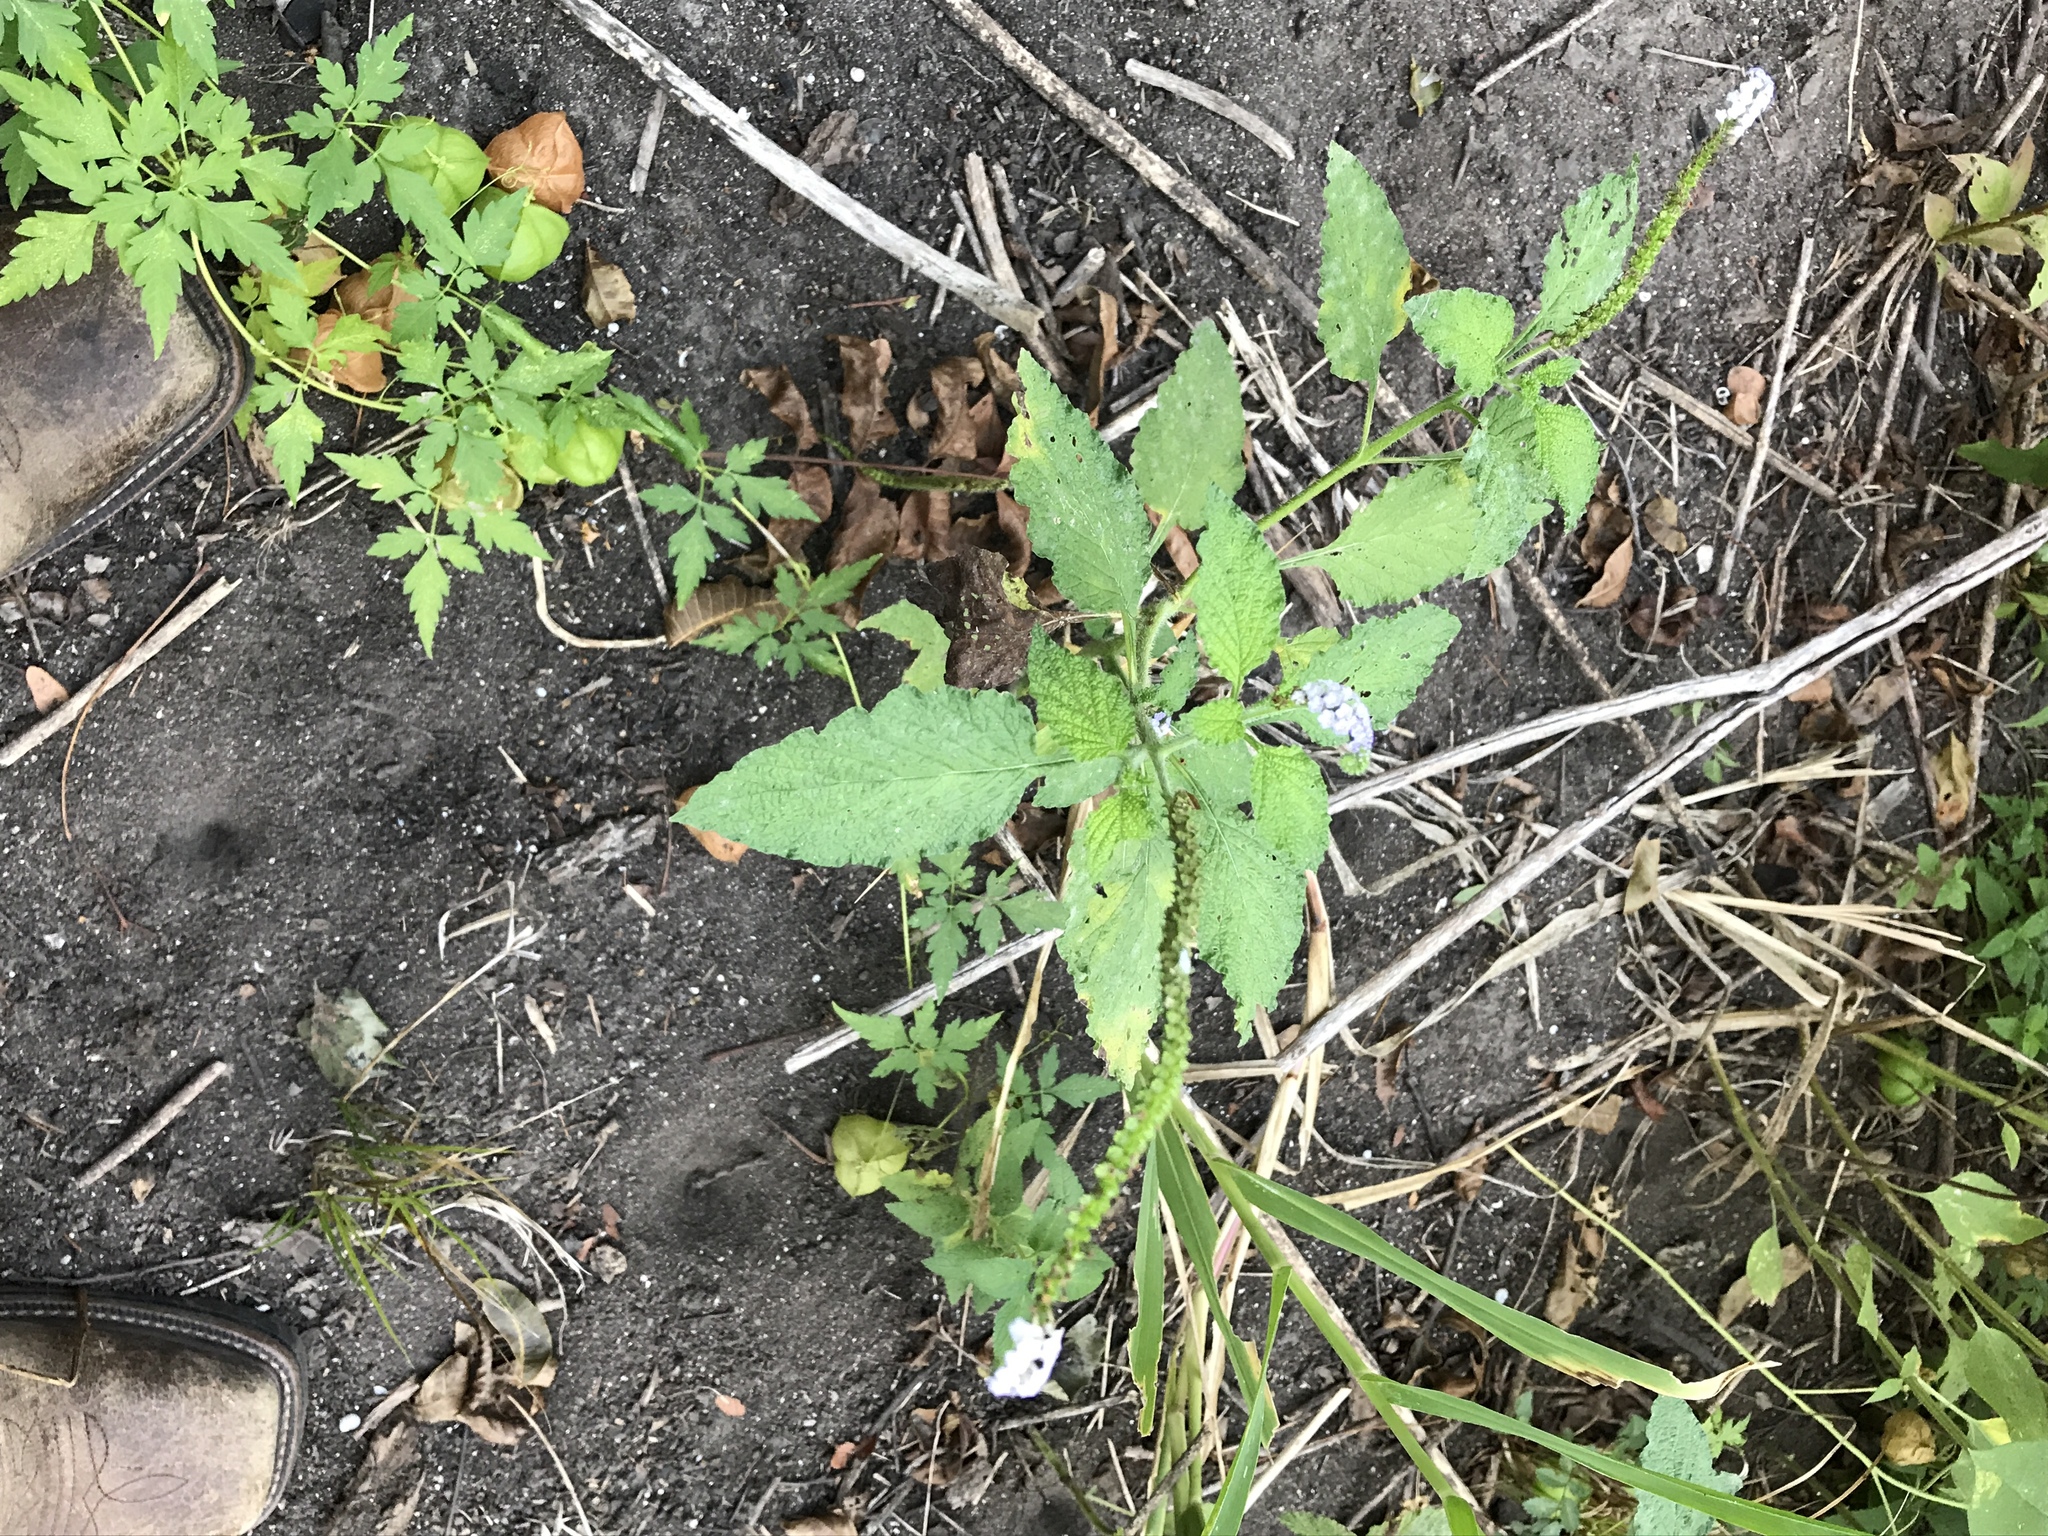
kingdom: Plantae
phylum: Tracheophyta
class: Magnoliopsida
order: Boraginales
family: Heliotropiaceae
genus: Heliotropium
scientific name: Heliotropium indicum
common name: Indian heliotrope
